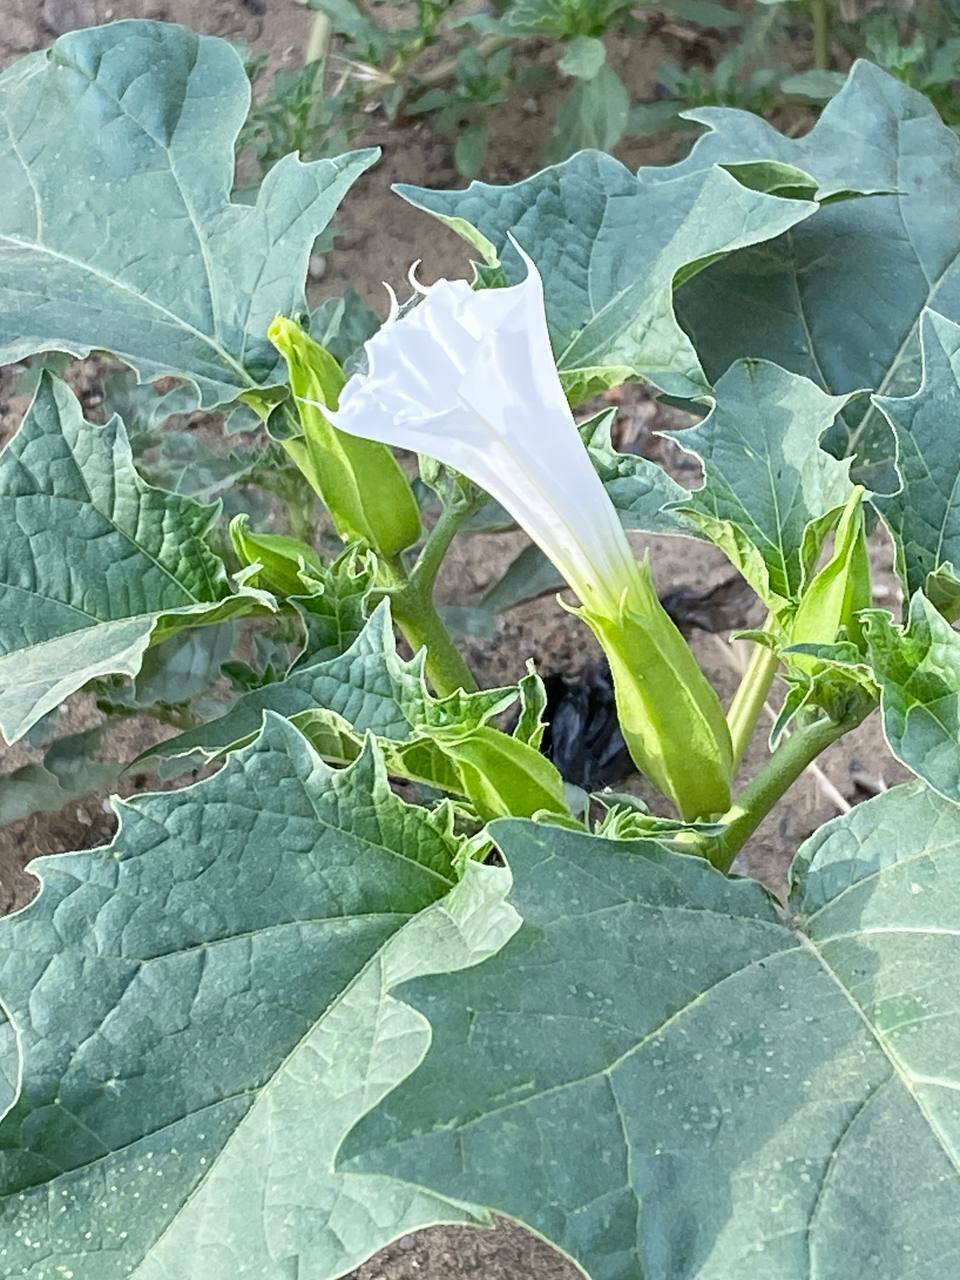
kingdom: Plantae
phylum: Tracheophyta
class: Magnoliopsida
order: Solanales
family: Solanaceae
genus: Datura
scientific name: Datura stramonium
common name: Thorn-apple
